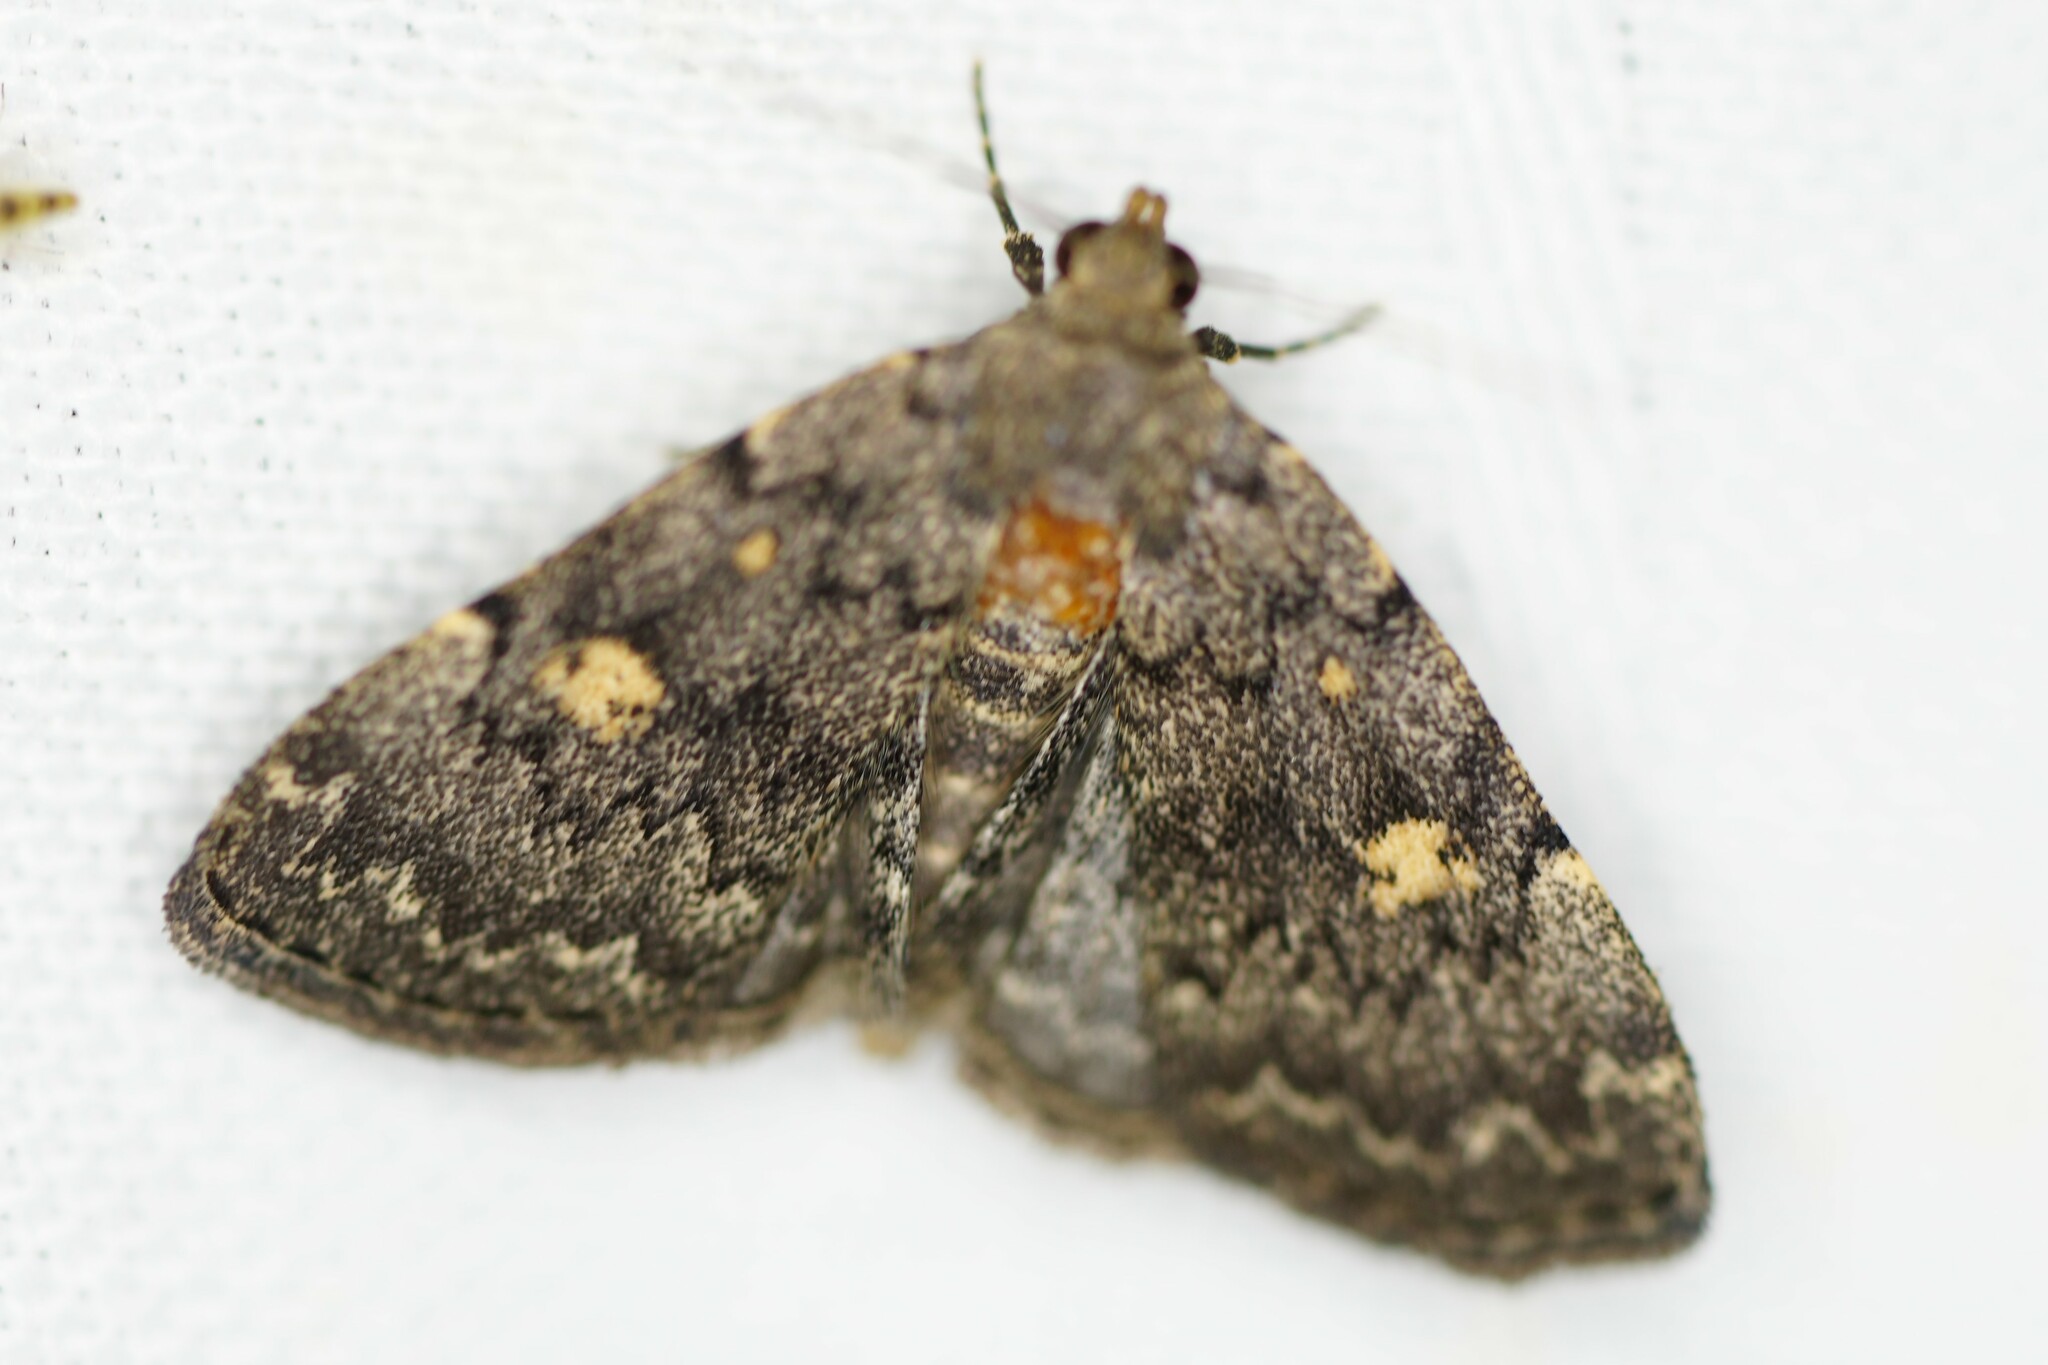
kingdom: Animalia
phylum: Arthropoda
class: Insecta
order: Lepidoptera
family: Erebidae
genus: Idia
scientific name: Idia aemula
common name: Common idia moth
